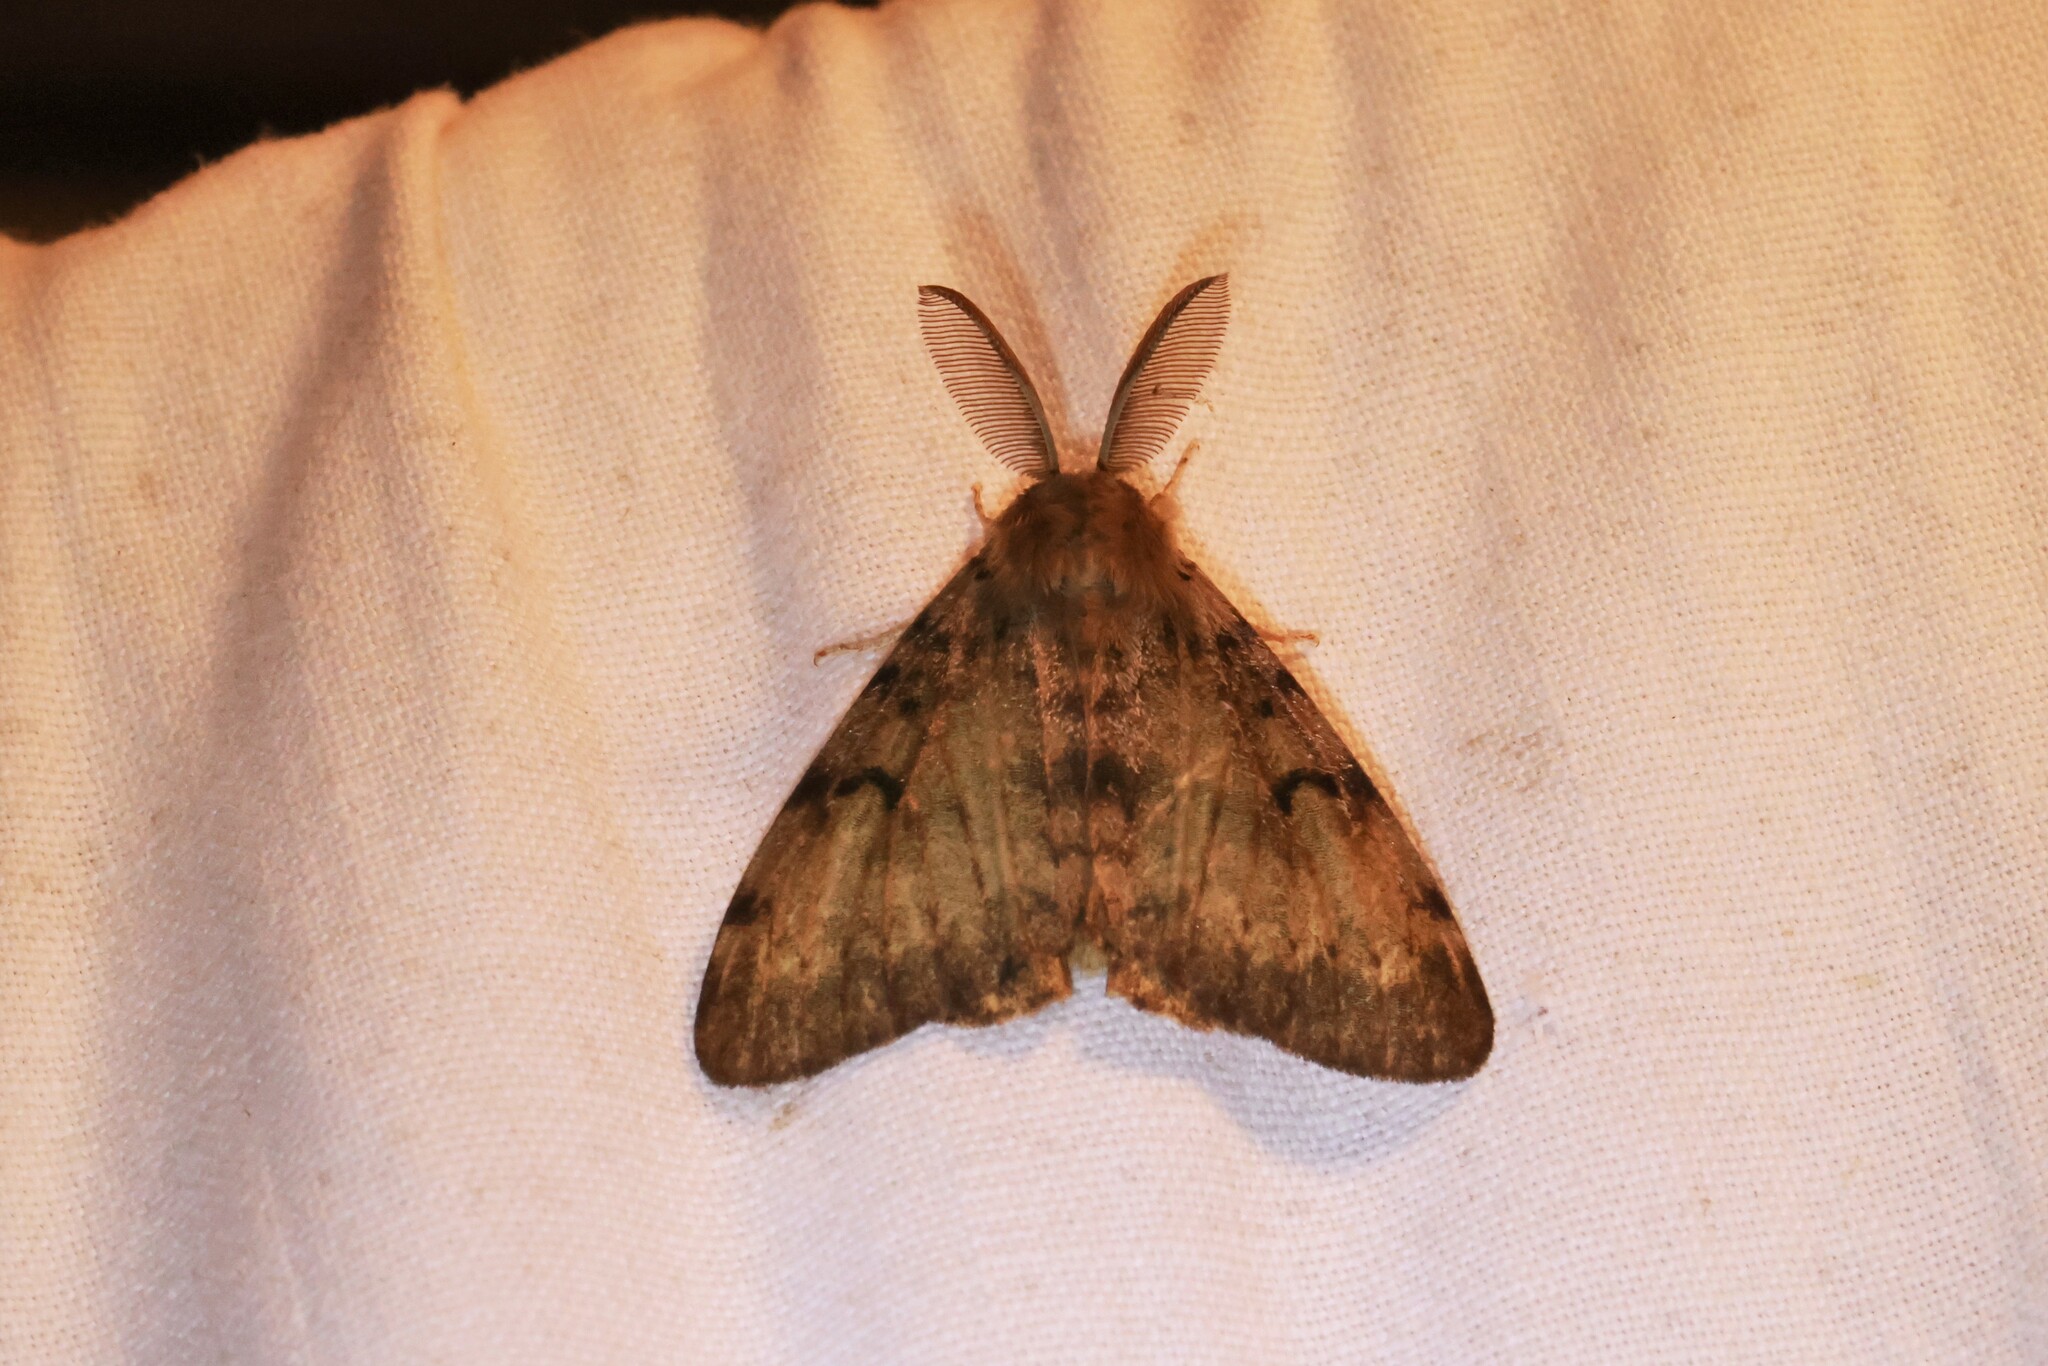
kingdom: Animalia
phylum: Arthropoda
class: Insecta
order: Lepidoptera
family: Erebidae
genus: Lymantria
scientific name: Lymantria dispar
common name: Gypsy moth
